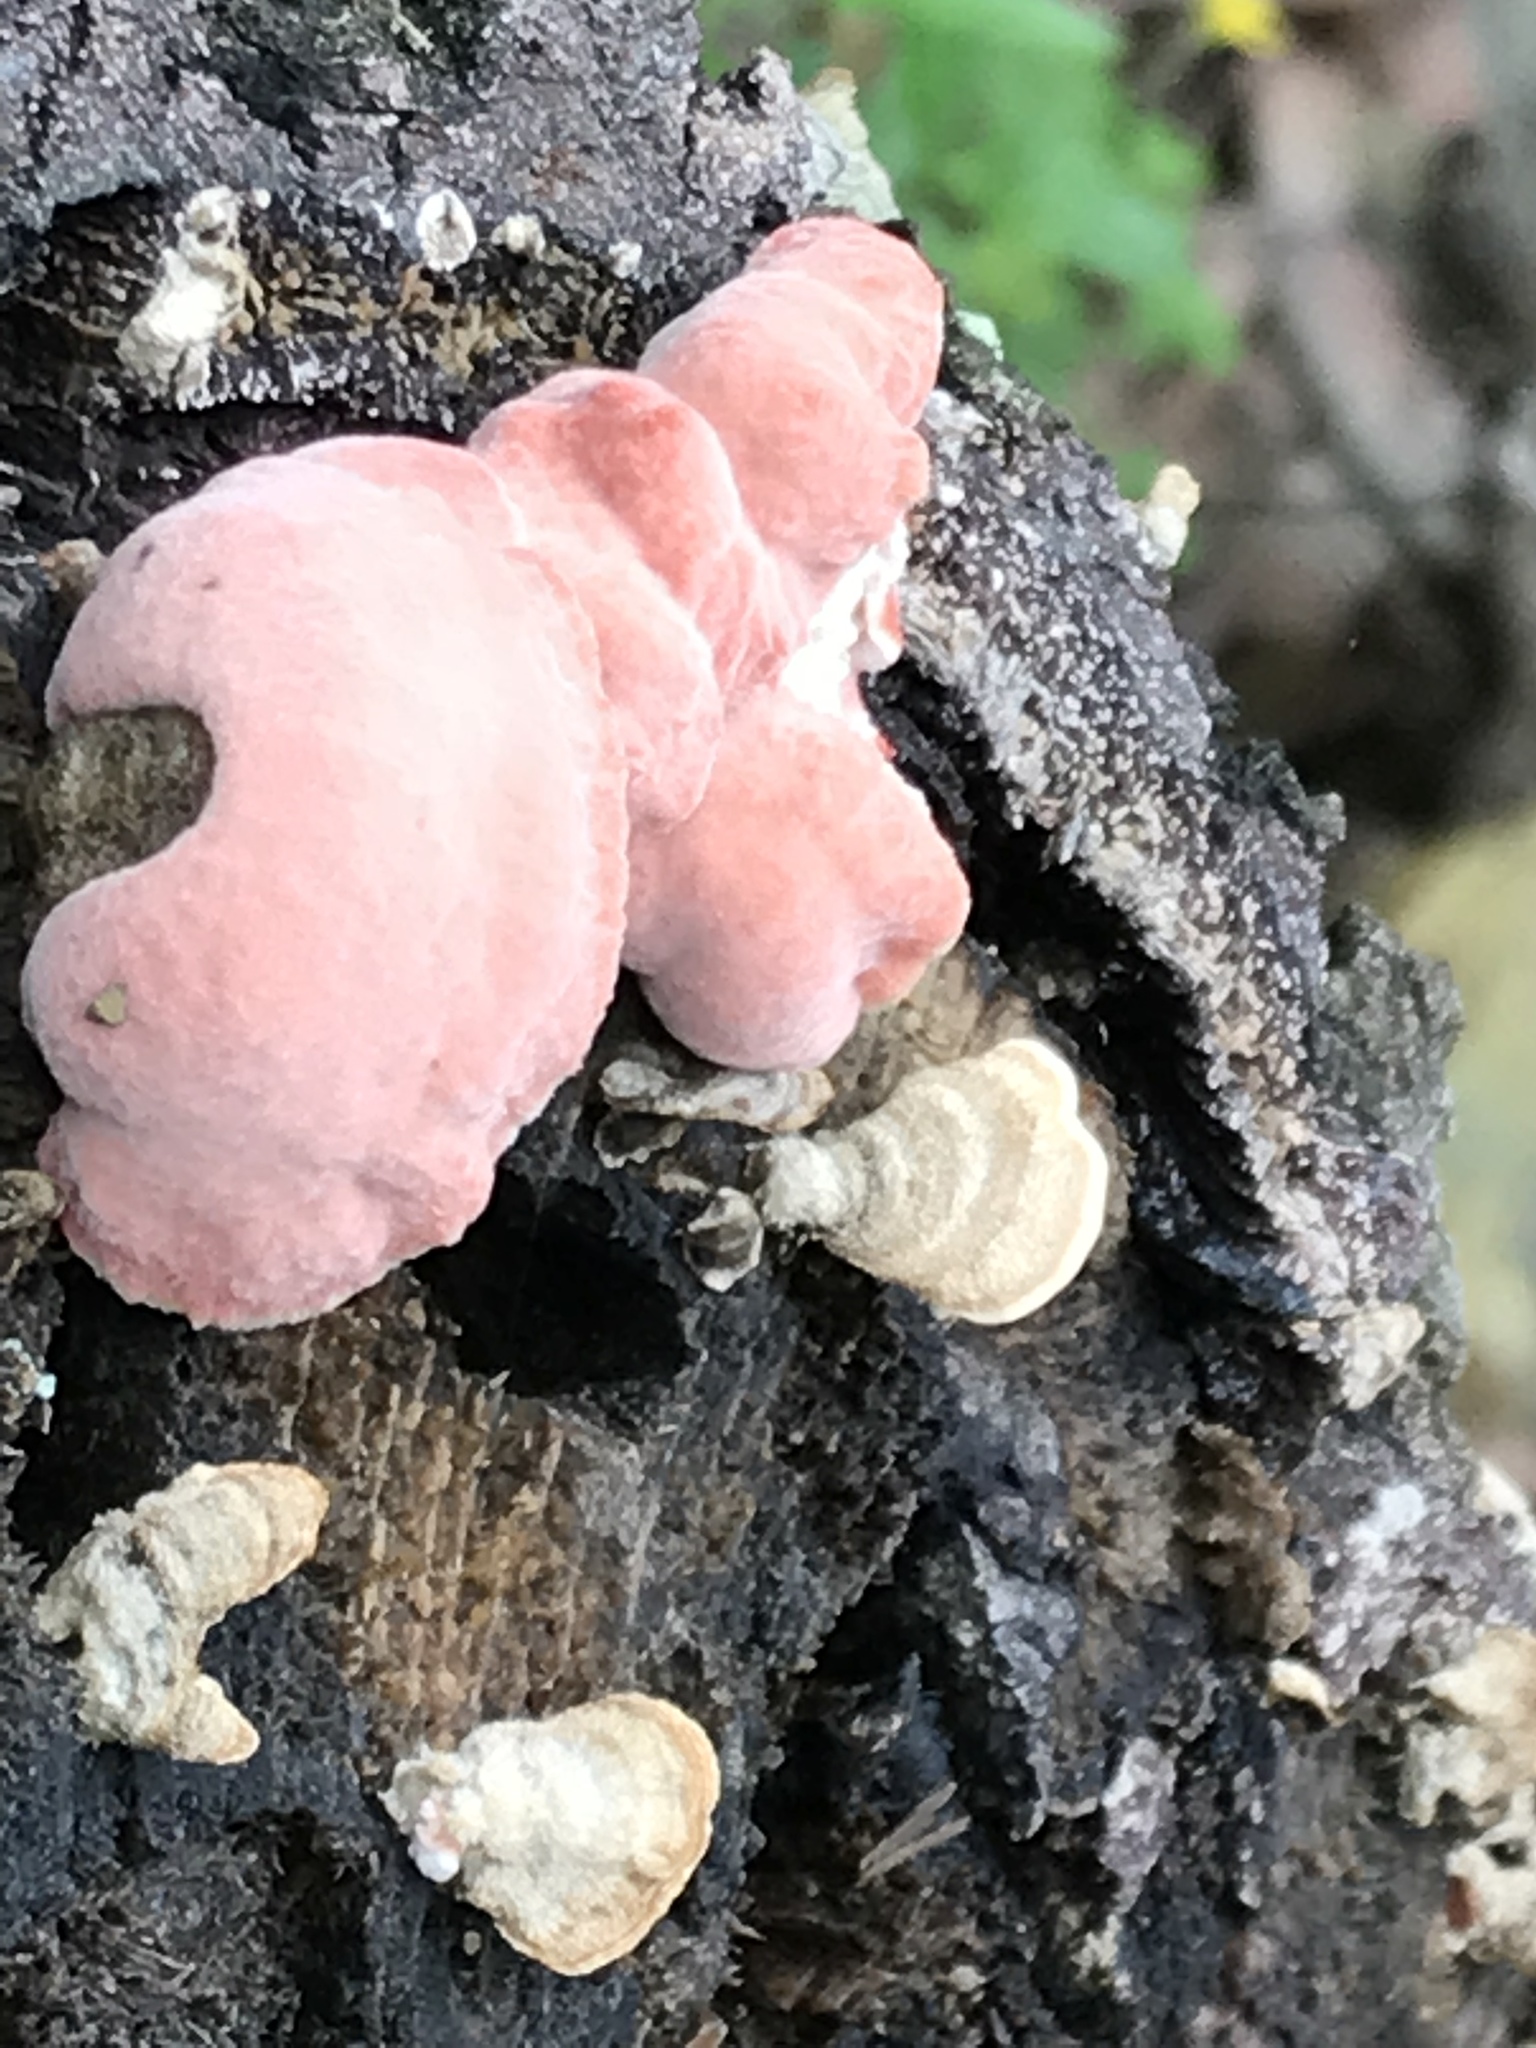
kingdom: Fungi
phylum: Basidiomycota
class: Agaricomycetes
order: Polyporales
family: Irpicaceae
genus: Byssomerulius
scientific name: Byssomerulius incarnatus
